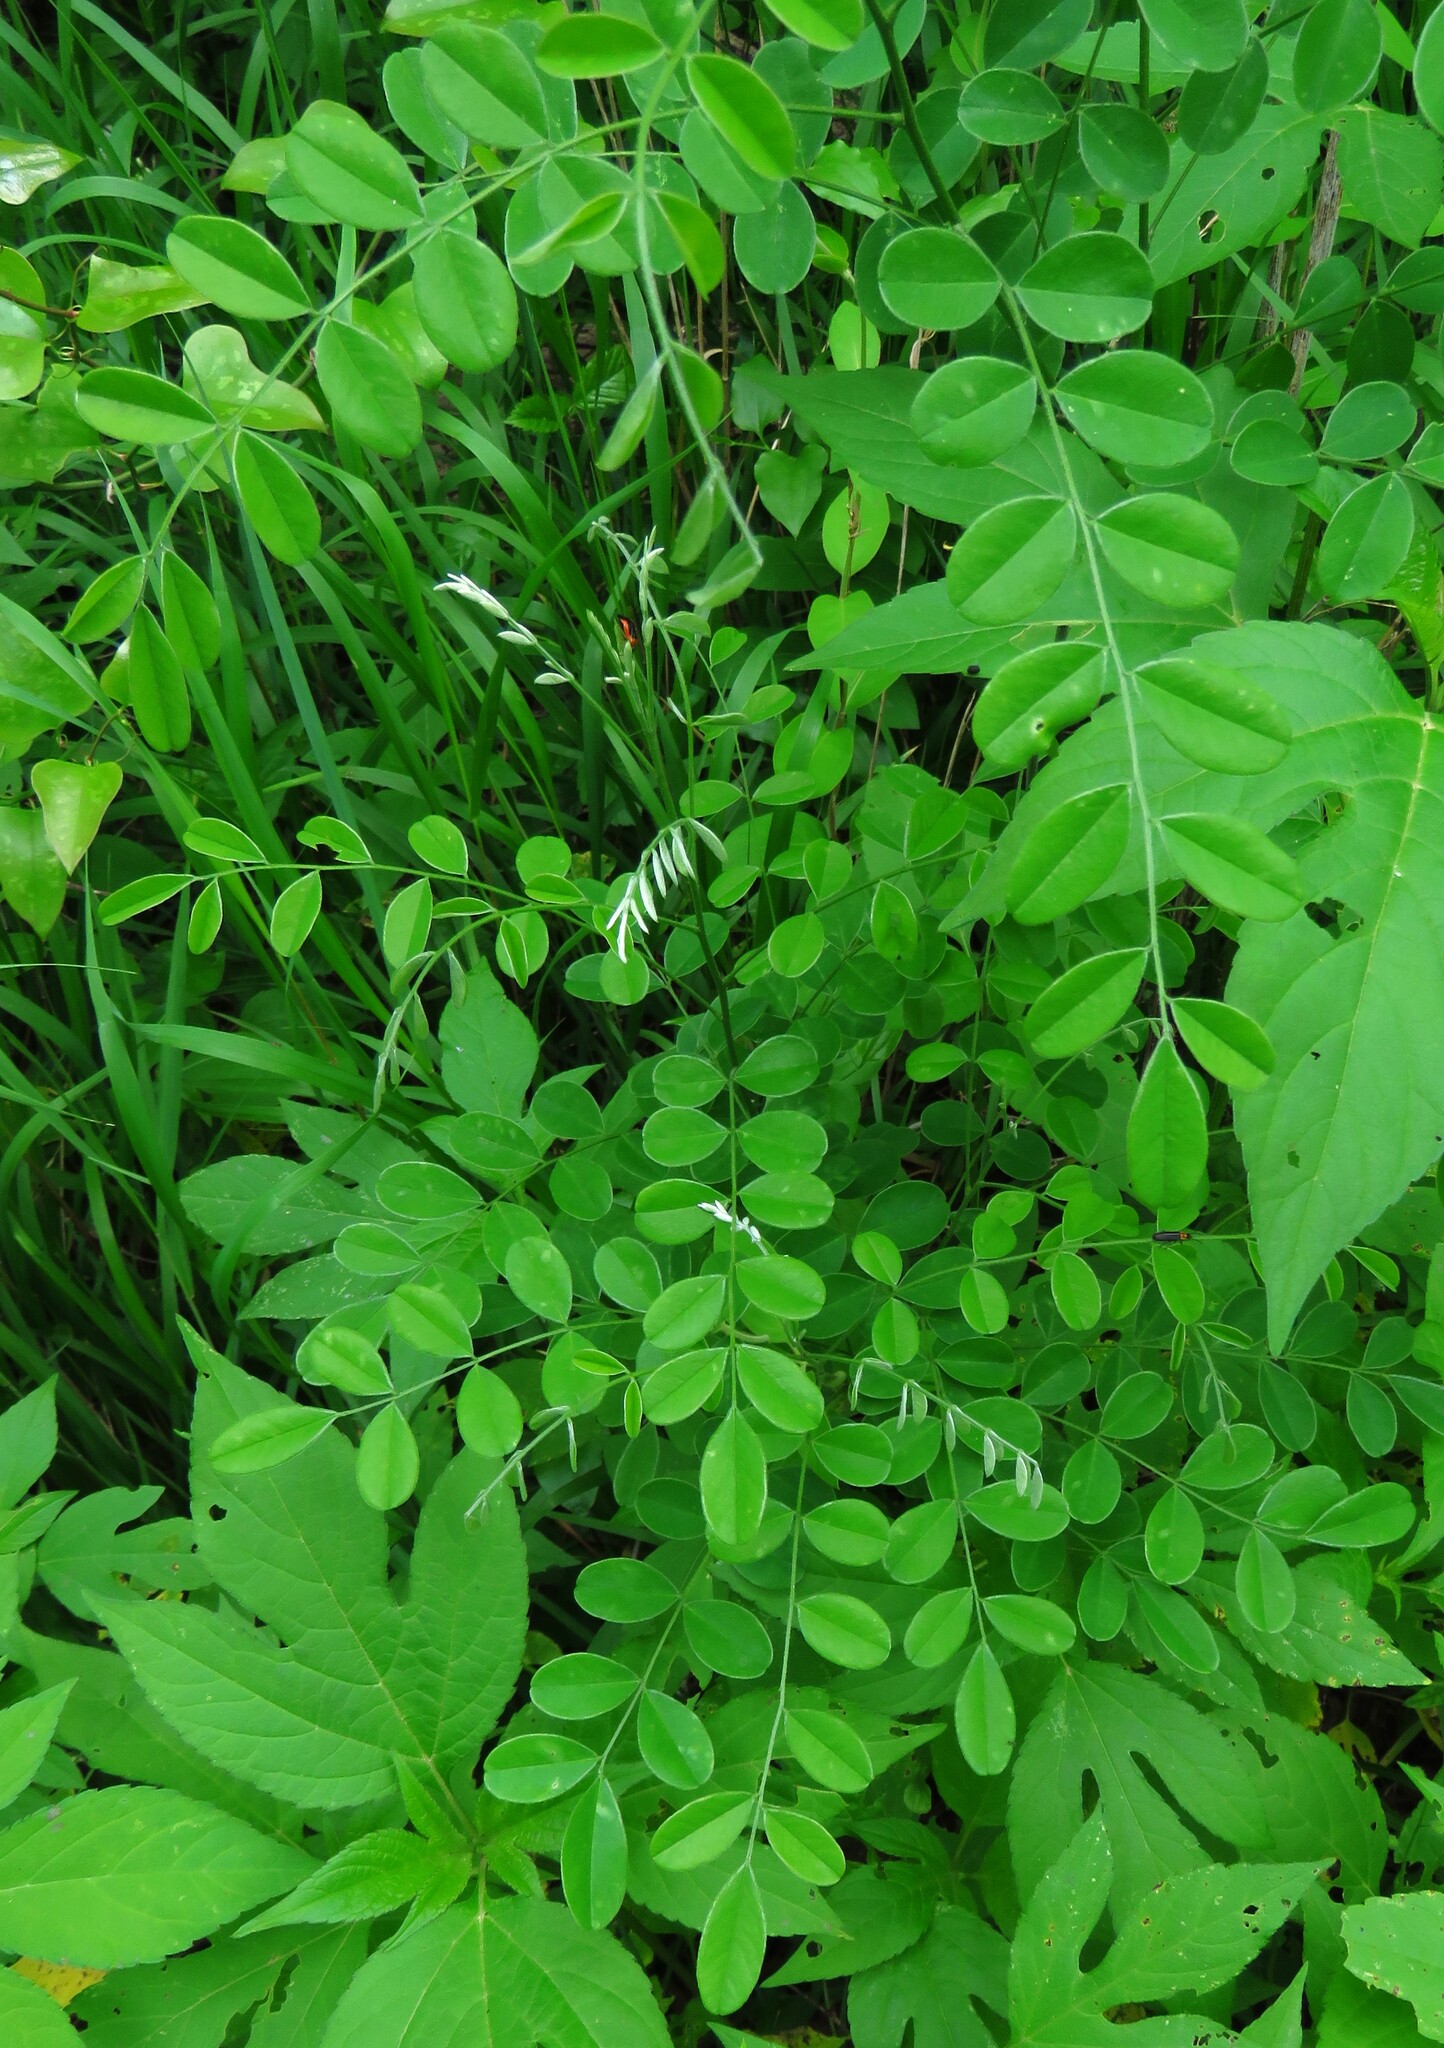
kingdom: Plantae
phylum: Tracheophyta
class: Magnoliopsida
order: Fabales
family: Fabaceae
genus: Styphnolobium
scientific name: Styphnolobium affine
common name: Texas sophora
